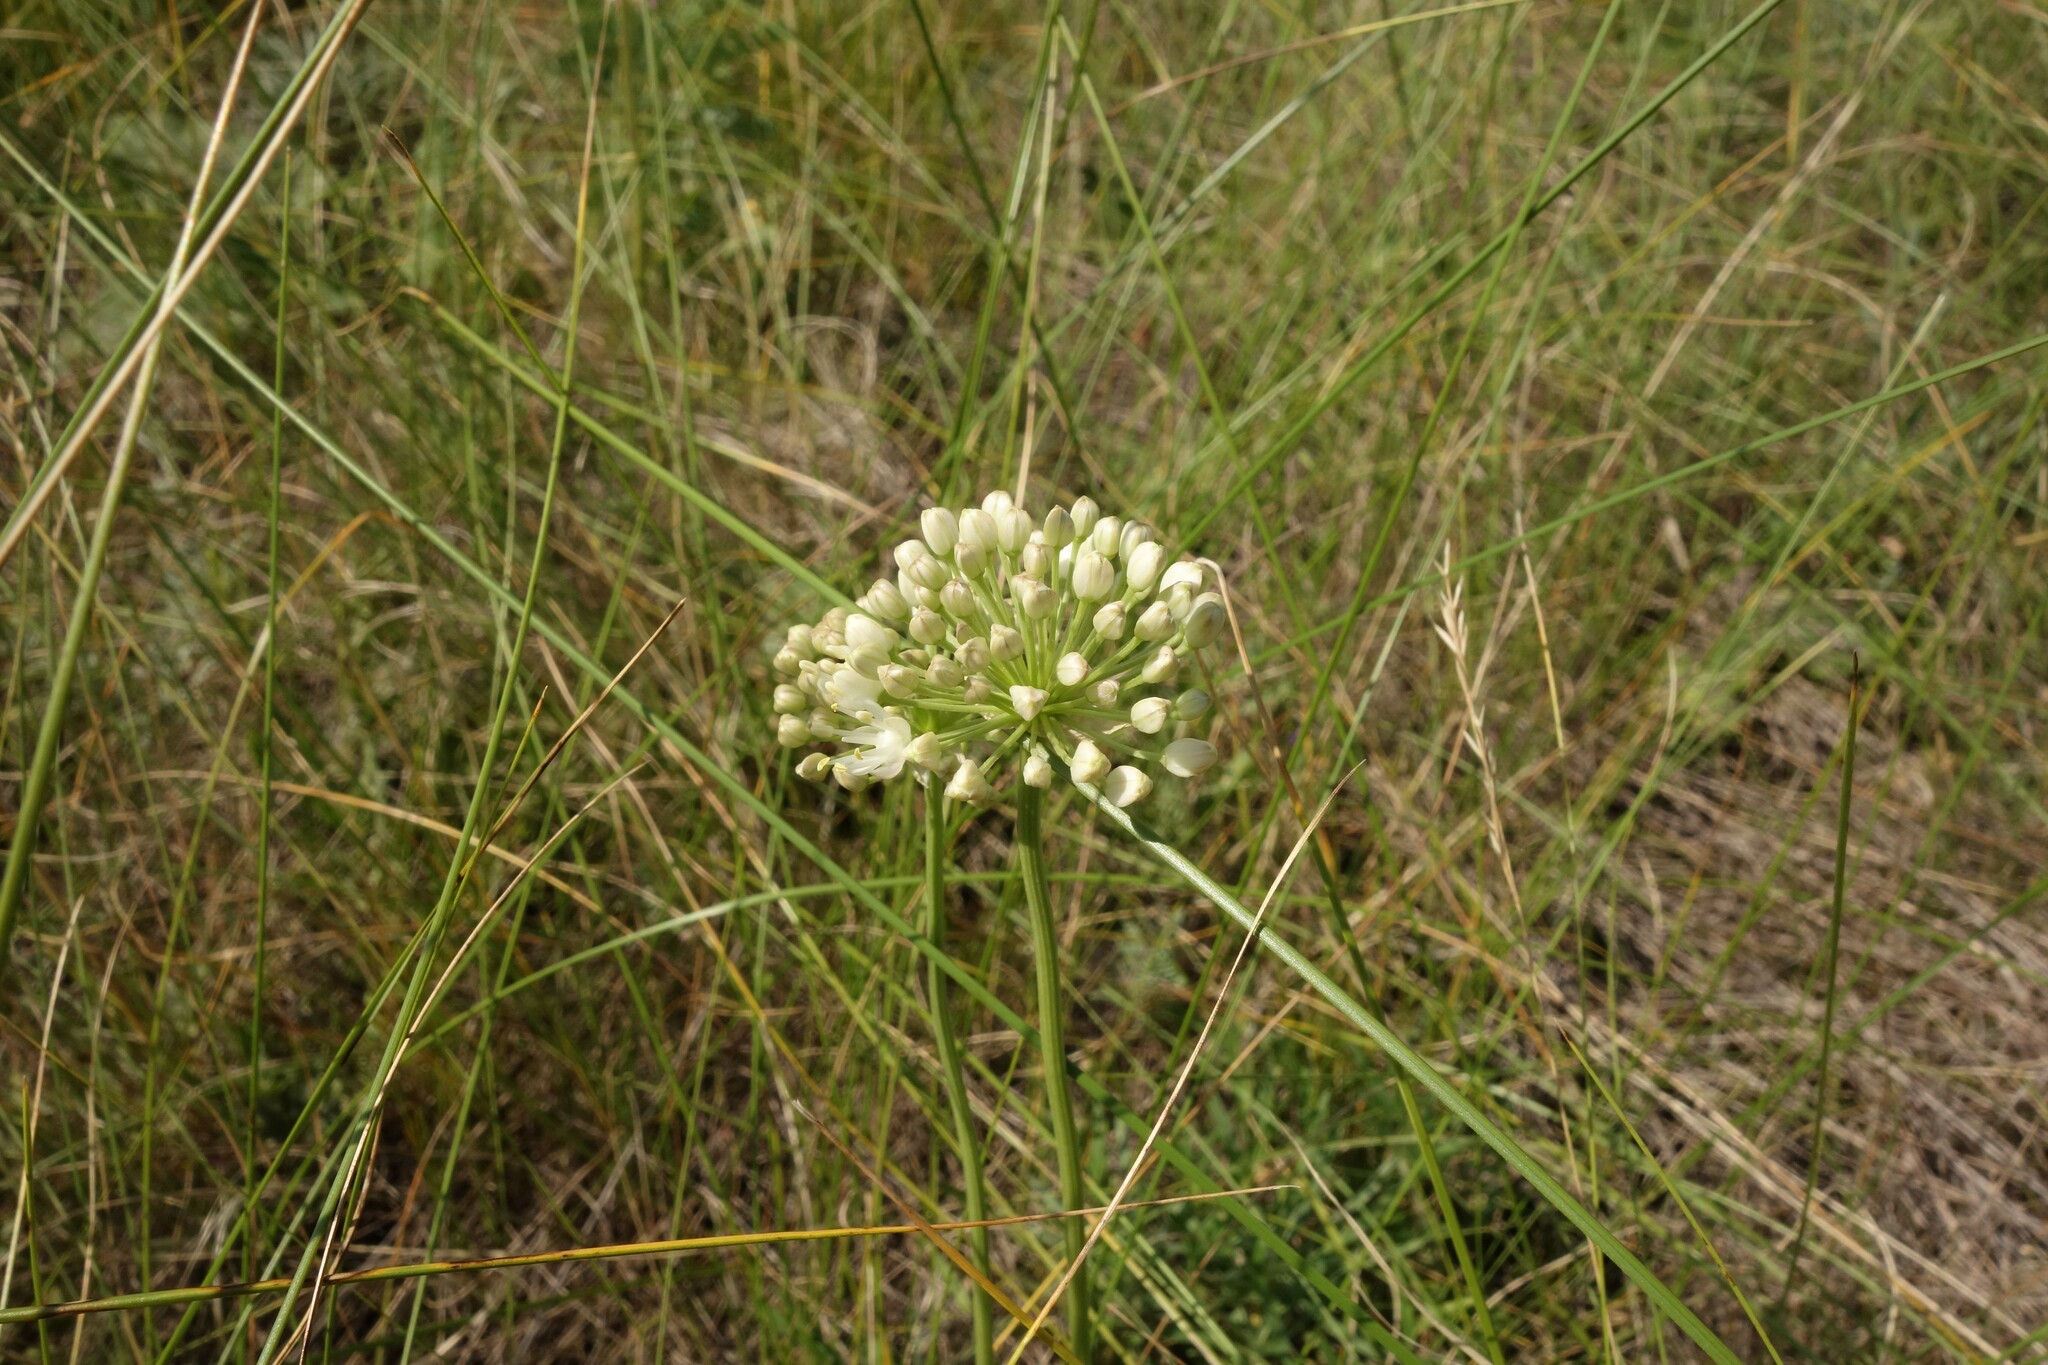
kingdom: Plantae
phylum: Tracheophyta
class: Liliopsida
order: Asparagales
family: Amaryllidaceae
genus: Allium
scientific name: Allium flavescens
